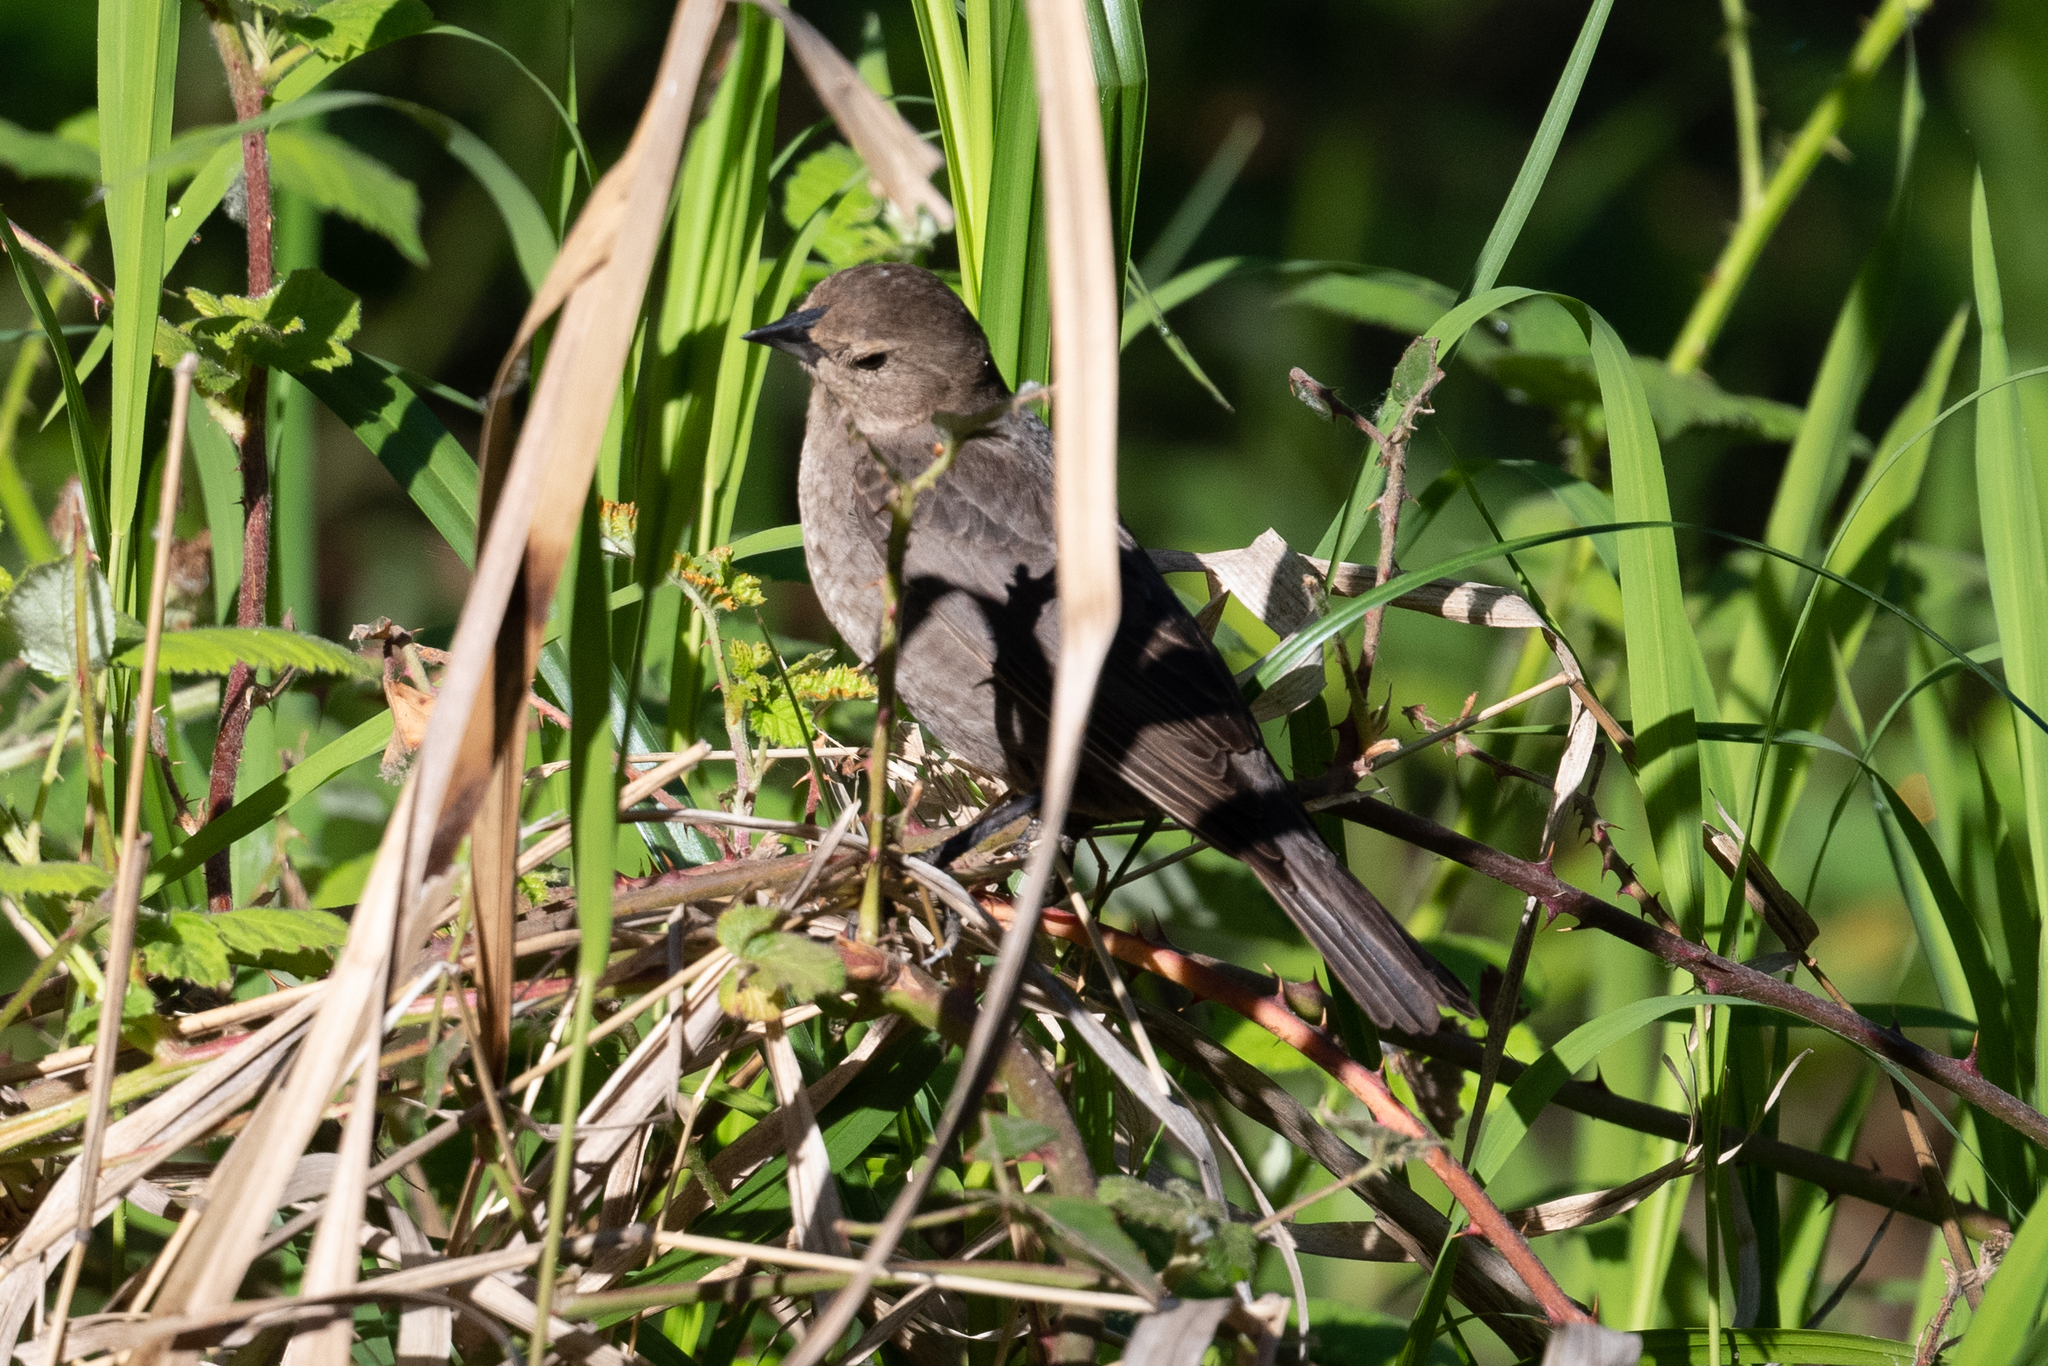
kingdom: Animalia
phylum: Chordata
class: Aves
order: Passeriformes
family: Icteridae
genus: Molothrus
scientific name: Molothrus ater
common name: Brown-headed cowbird
